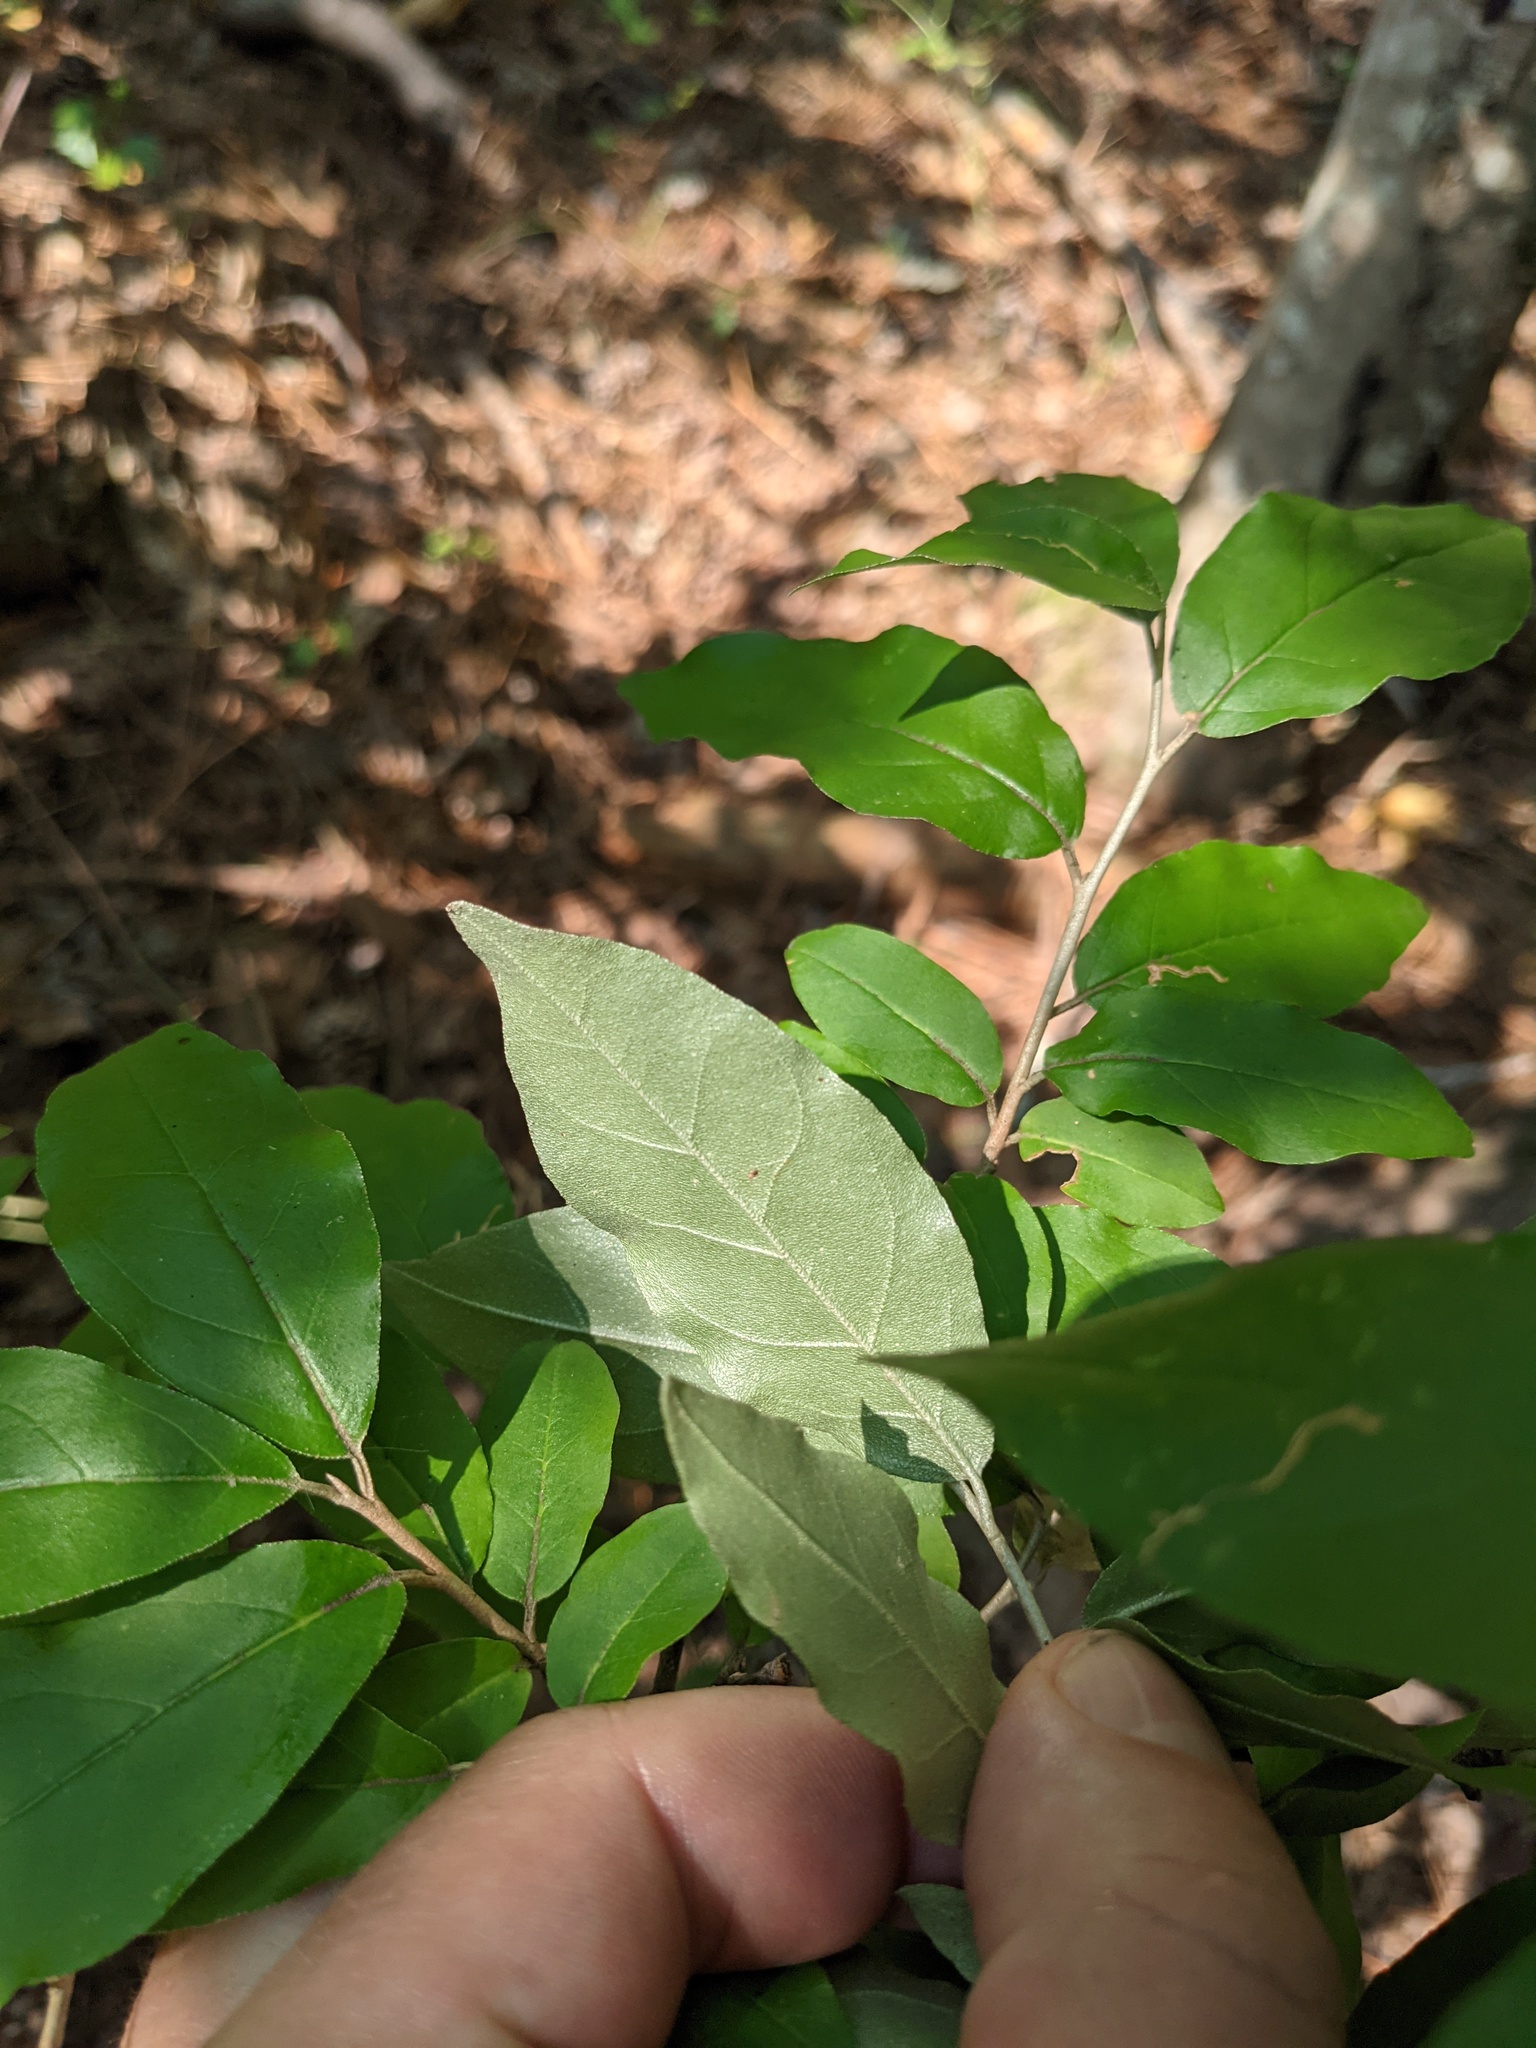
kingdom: Plantae
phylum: Tracheophyta
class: Magnoliopsida
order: Rosales
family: Elaeagnaceae
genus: Elaeagnus
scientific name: Elaeagnus umbellata
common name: Autumn olive
